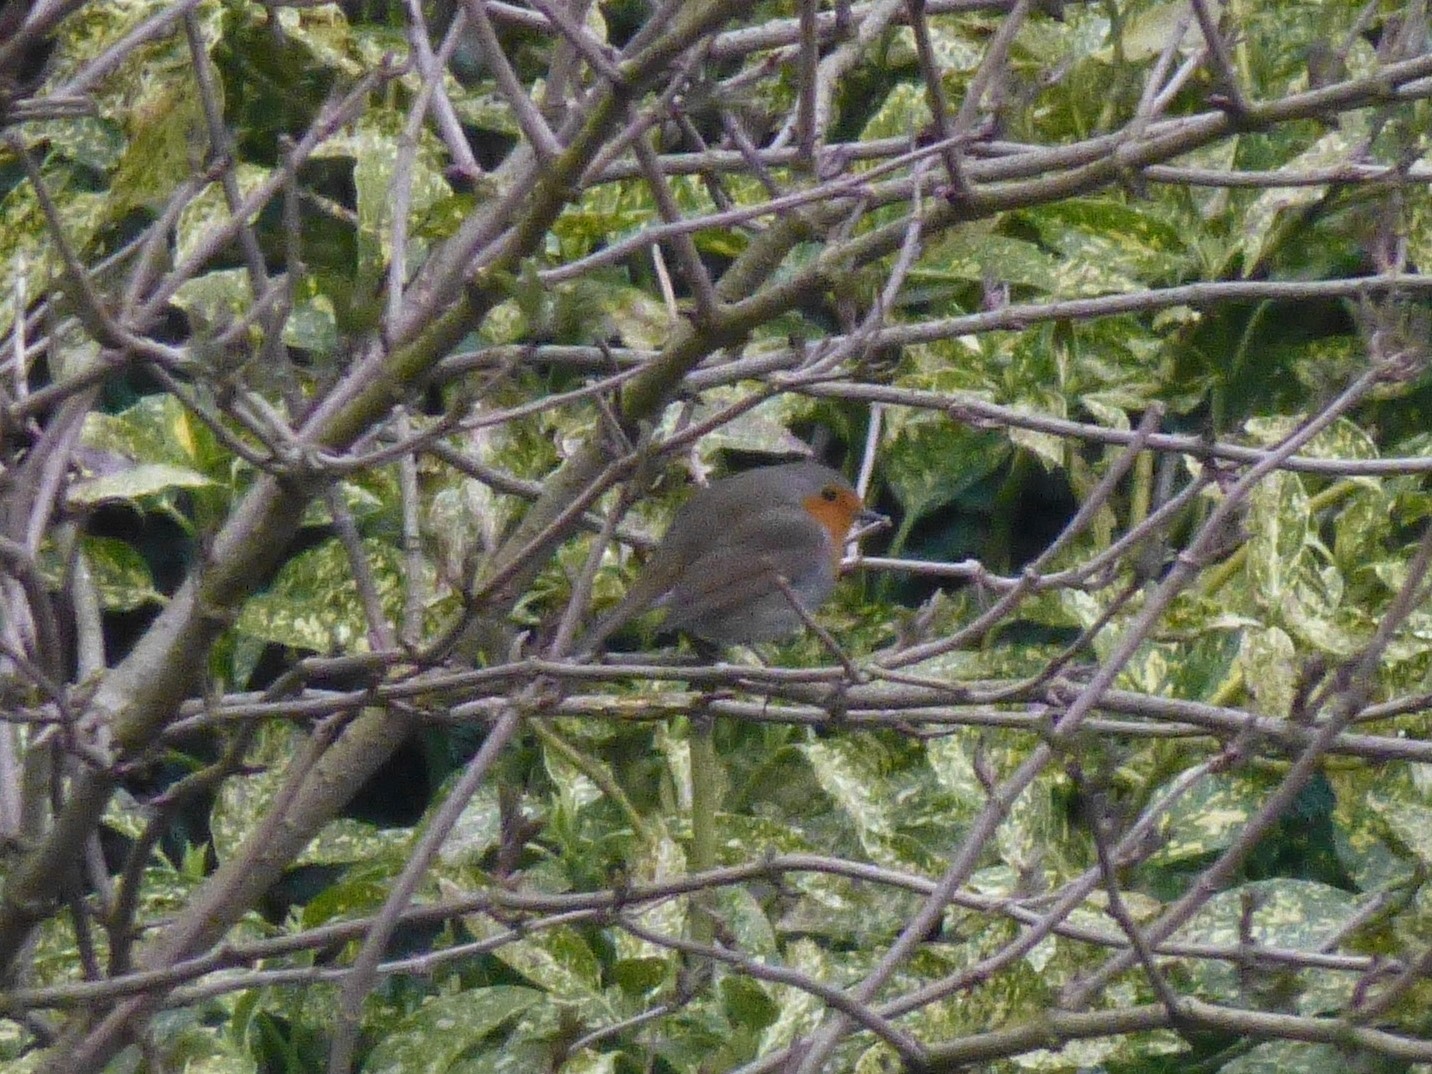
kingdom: Animalia
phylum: Chordata
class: Aves
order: Passeriformes
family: Muscicapidae
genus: Erithacus
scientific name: Erithacus rubecula
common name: European robin
